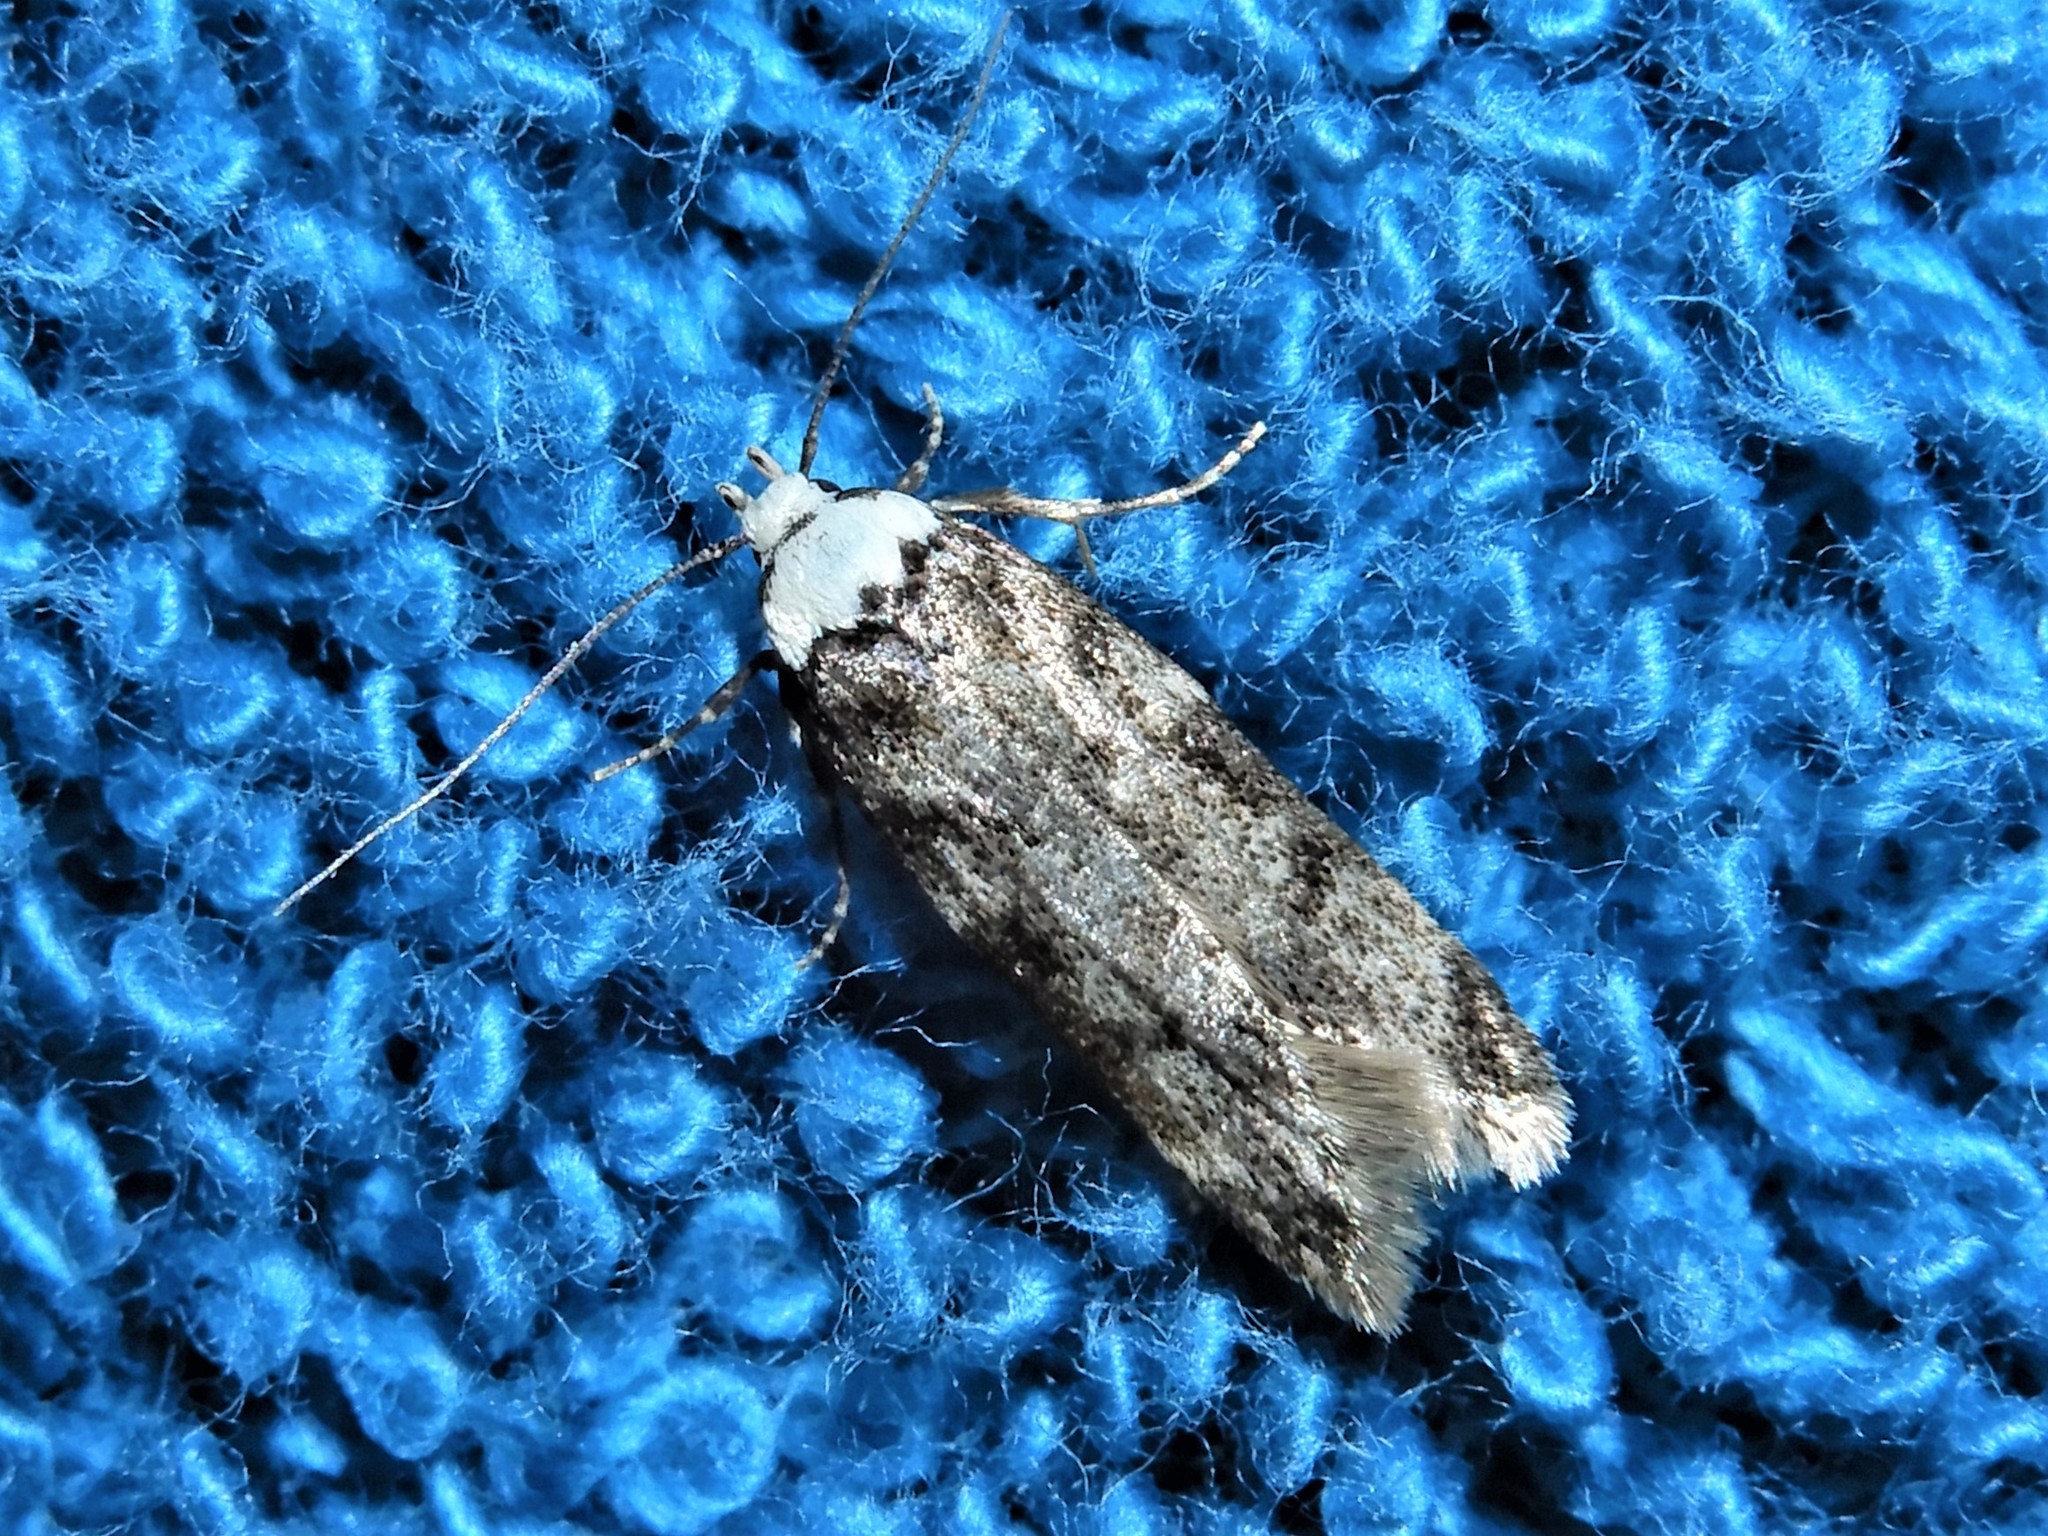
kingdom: Animalia
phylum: Arthropoda
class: Insecta
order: Lepidoptera
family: Oecophoridae
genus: Endrosis
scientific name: Endrosis sarcitrella
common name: White-shouldered house moth
